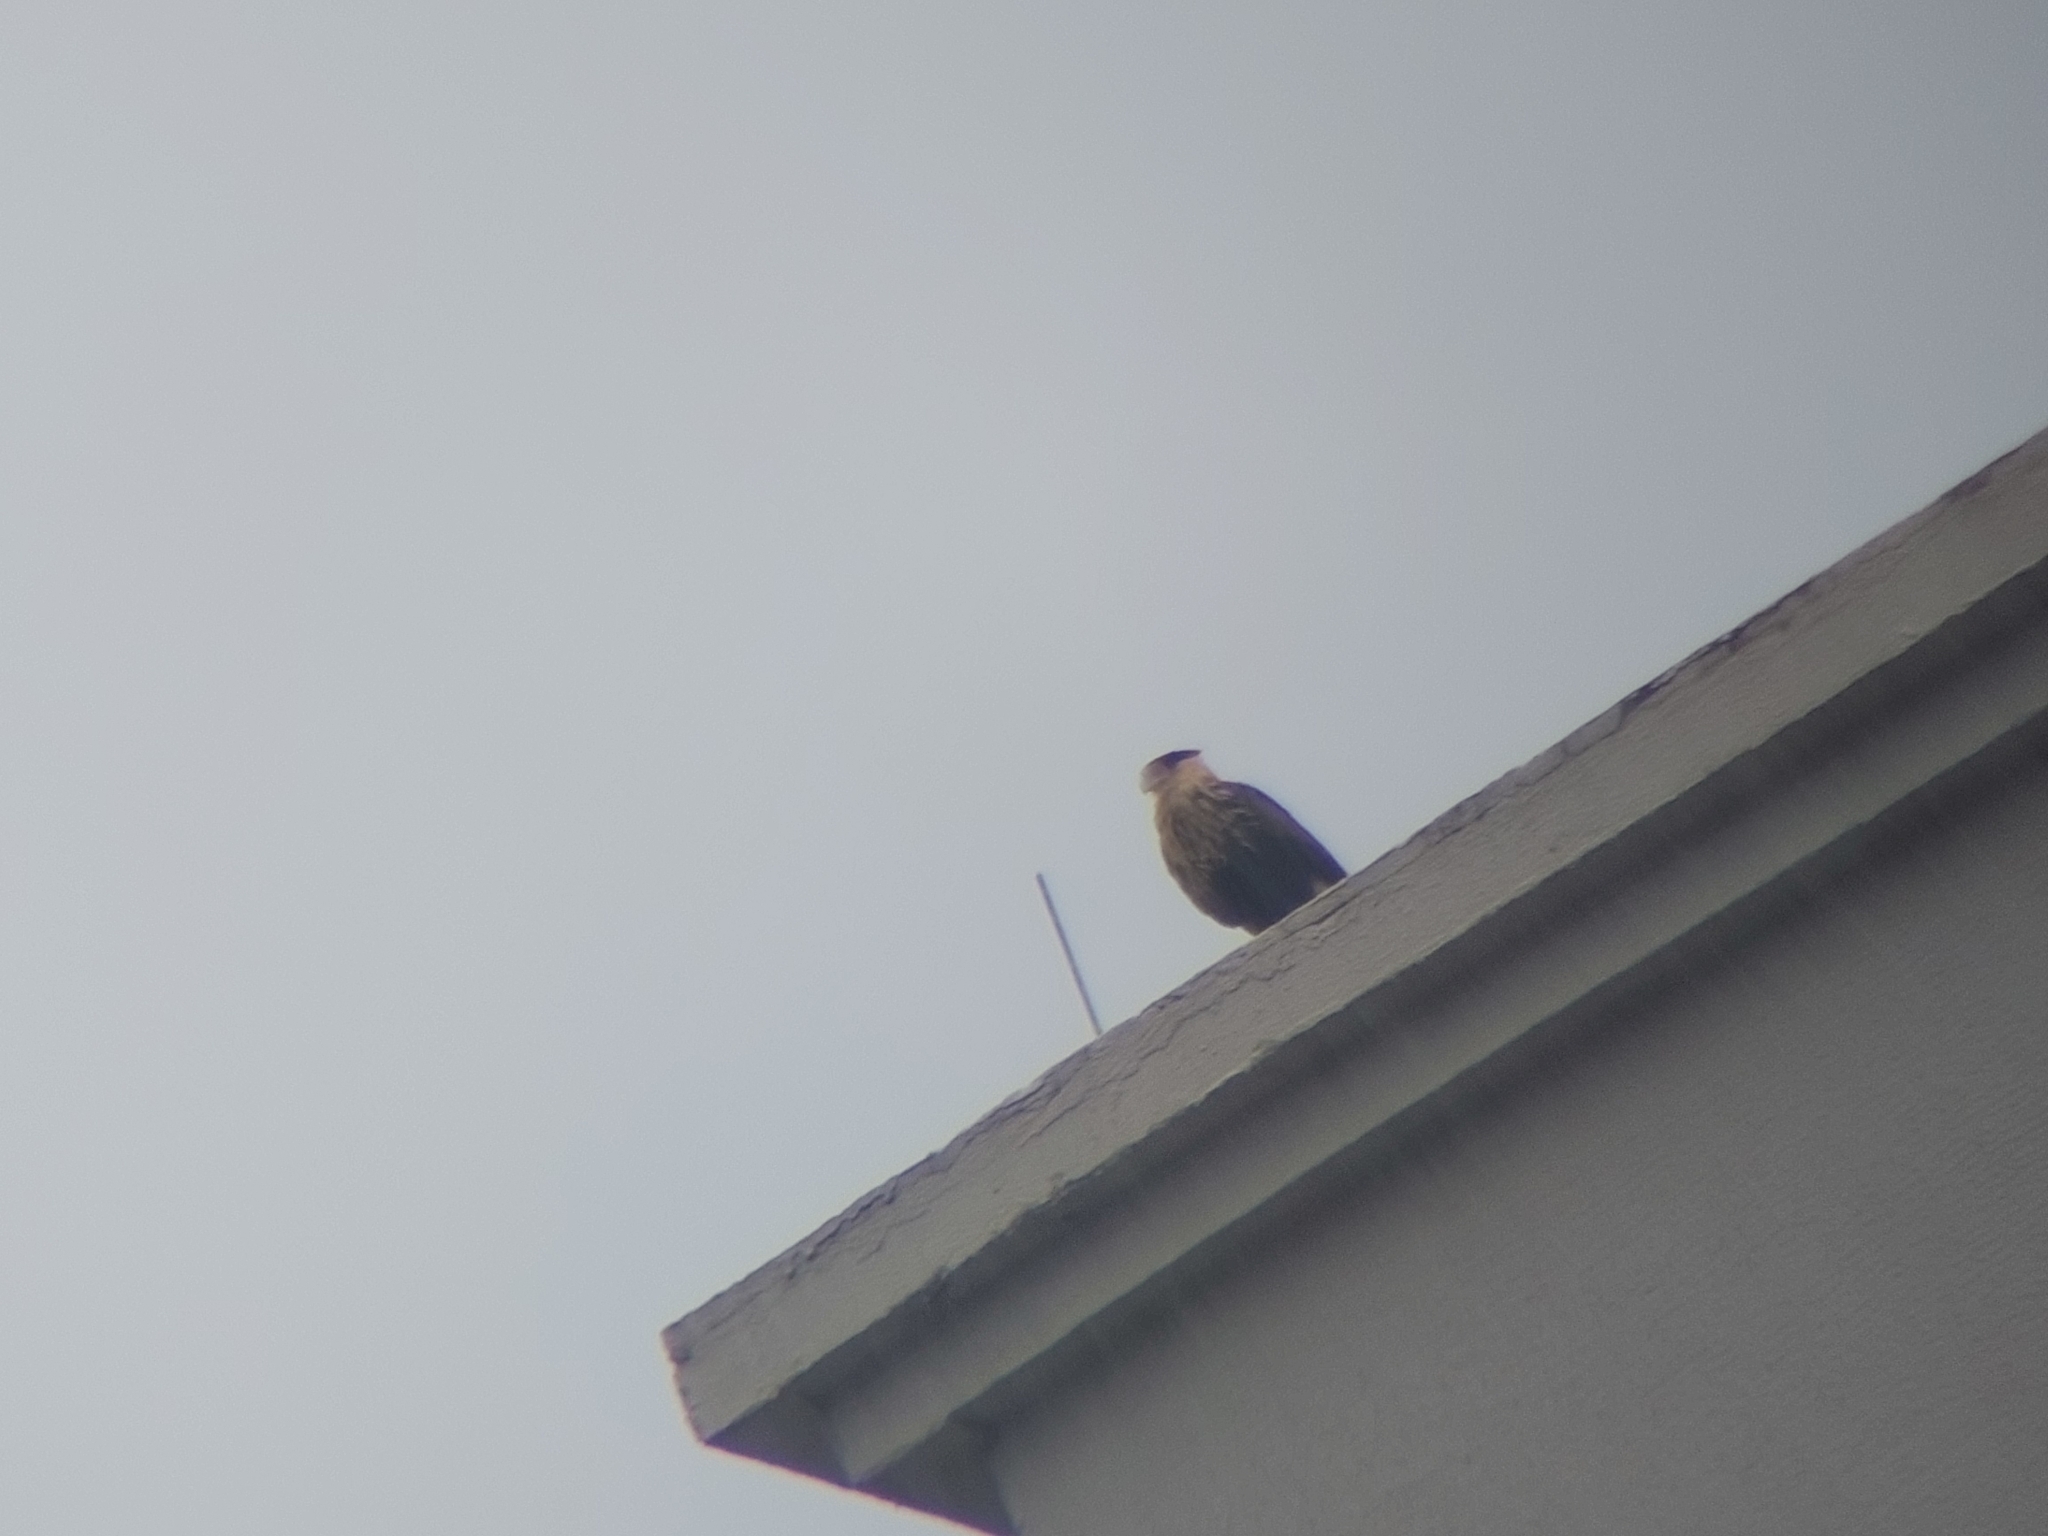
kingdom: Animalia
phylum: Chordata
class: Aves
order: Falconiformes
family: Falconidae
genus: Caracara
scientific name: Caracara plancus
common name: Southern caracara
